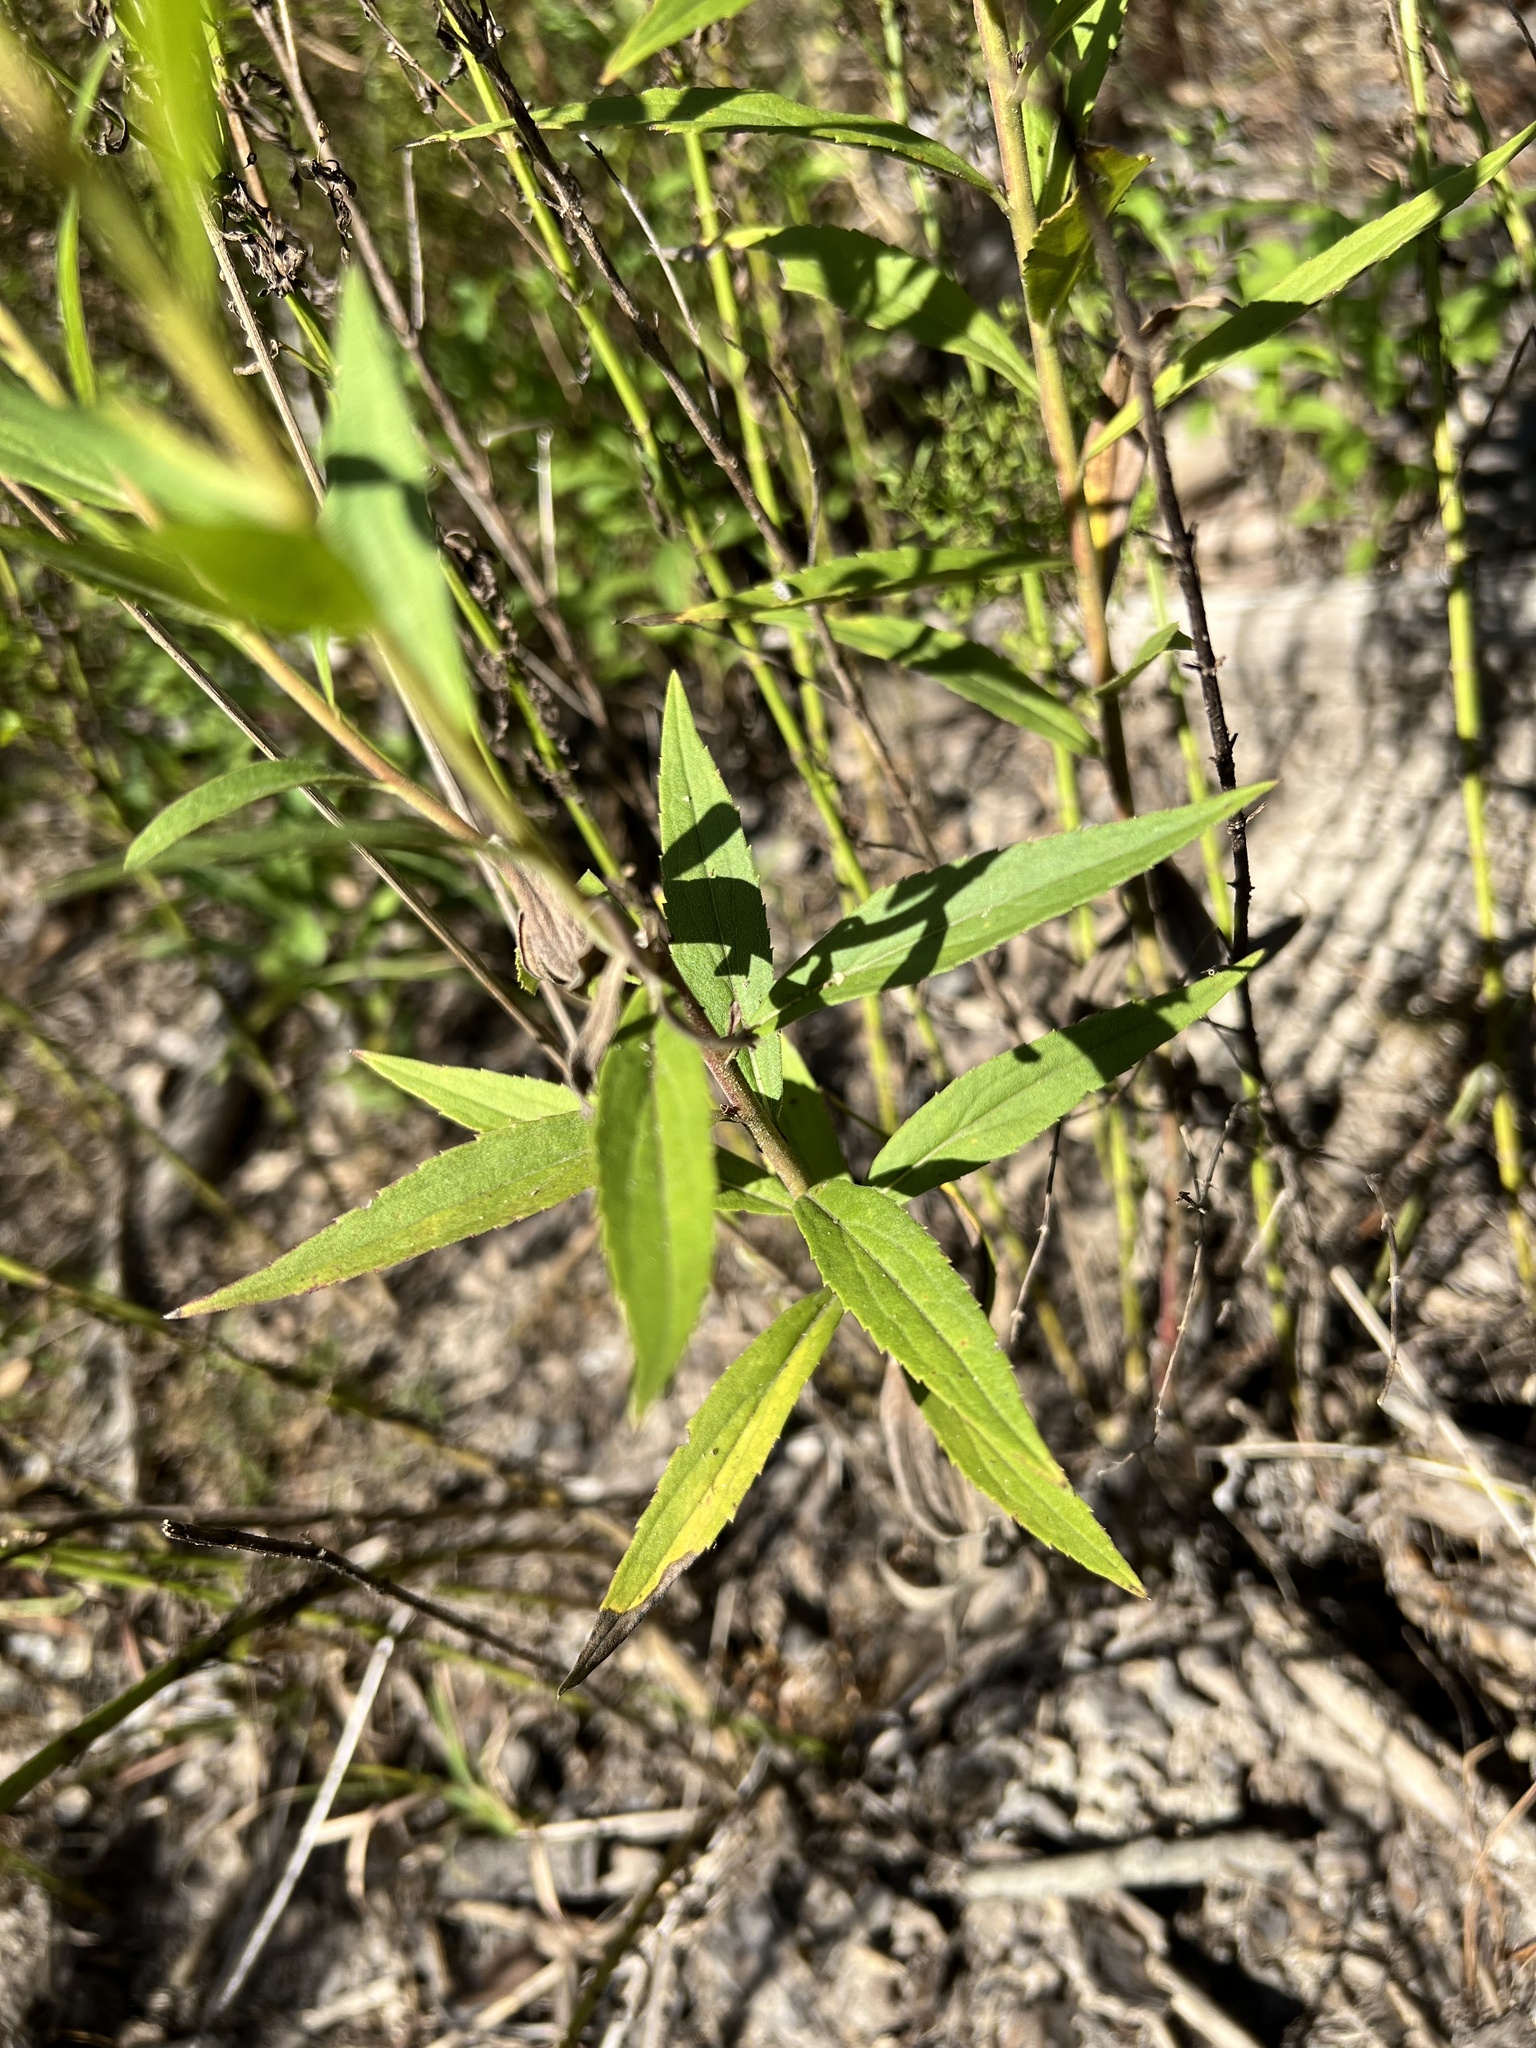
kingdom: Plantae
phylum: Tracheophyta
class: Magnoliopsida
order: Asterales
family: Asteraceae
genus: Solidago
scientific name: Solidago altissima
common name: Late goldenrod
